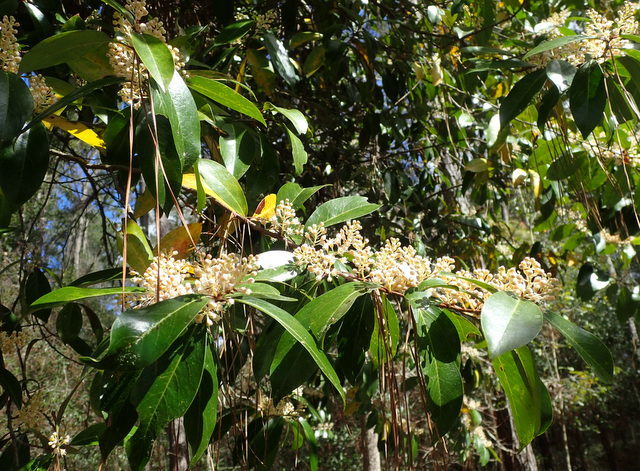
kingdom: Plantae
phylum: Tracheophyta
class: Magnoliopsida
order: Rosales
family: Rosaceae
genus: Prunus
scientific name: Prunus caroliniana
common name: Carolina laurel cherry
